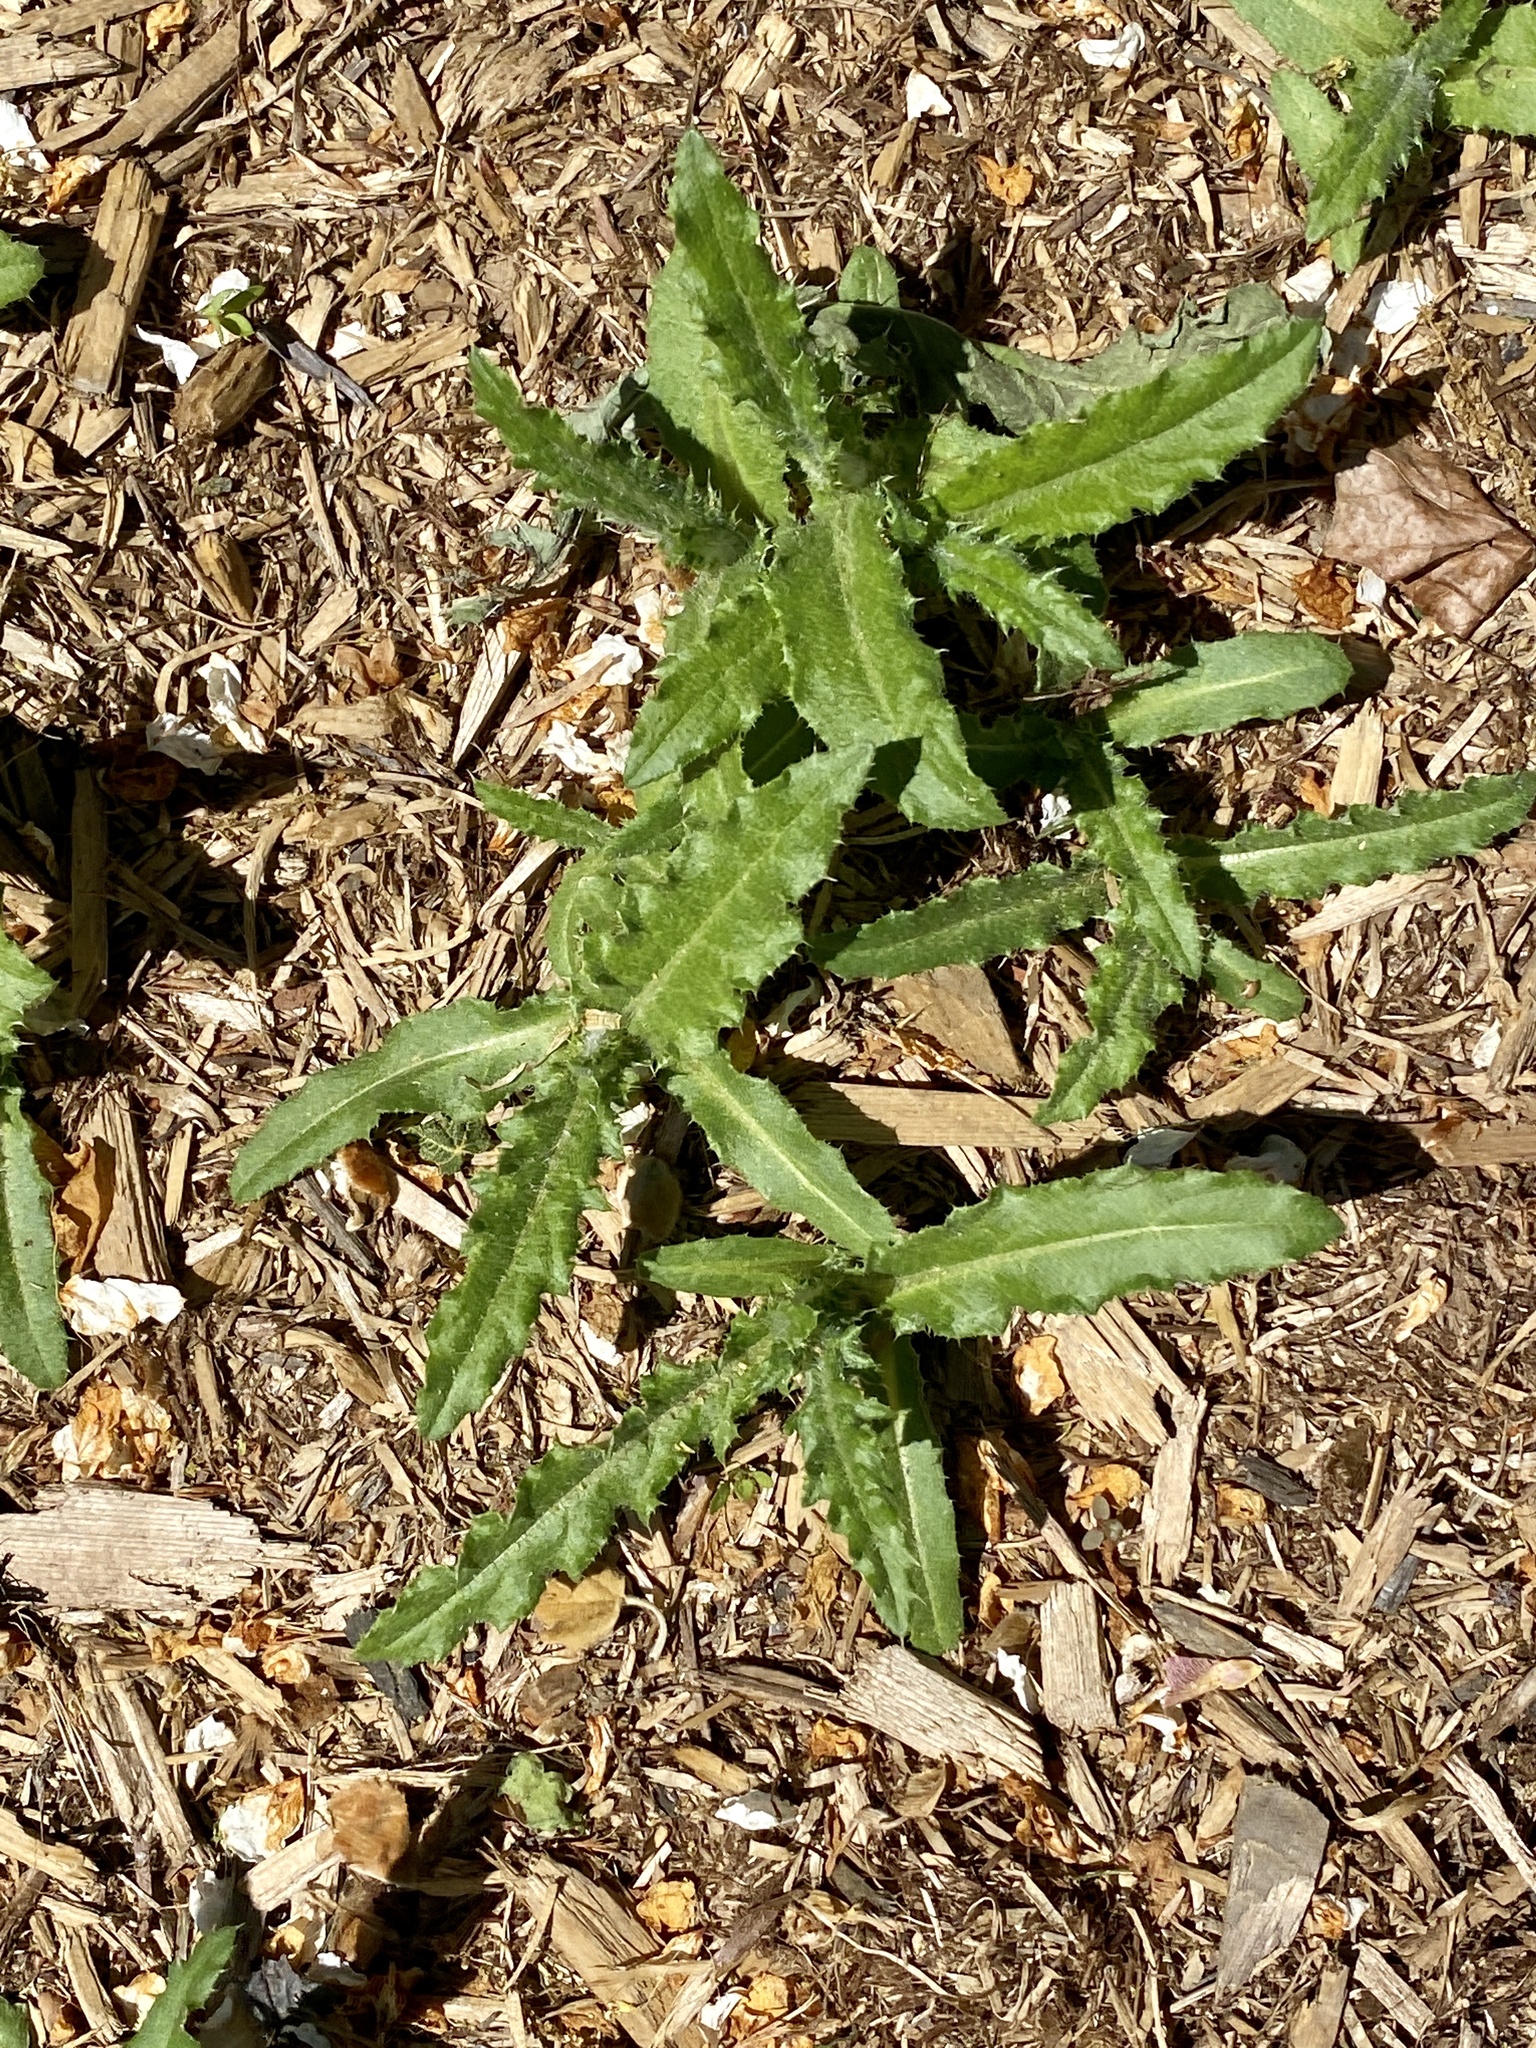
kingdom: Plantae
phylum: Tracheophyta
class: Magnoliopsida
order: Asterales
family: Asteraceae
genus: Cirsium
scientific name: Cirsium arvense
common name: Creeping thistle
